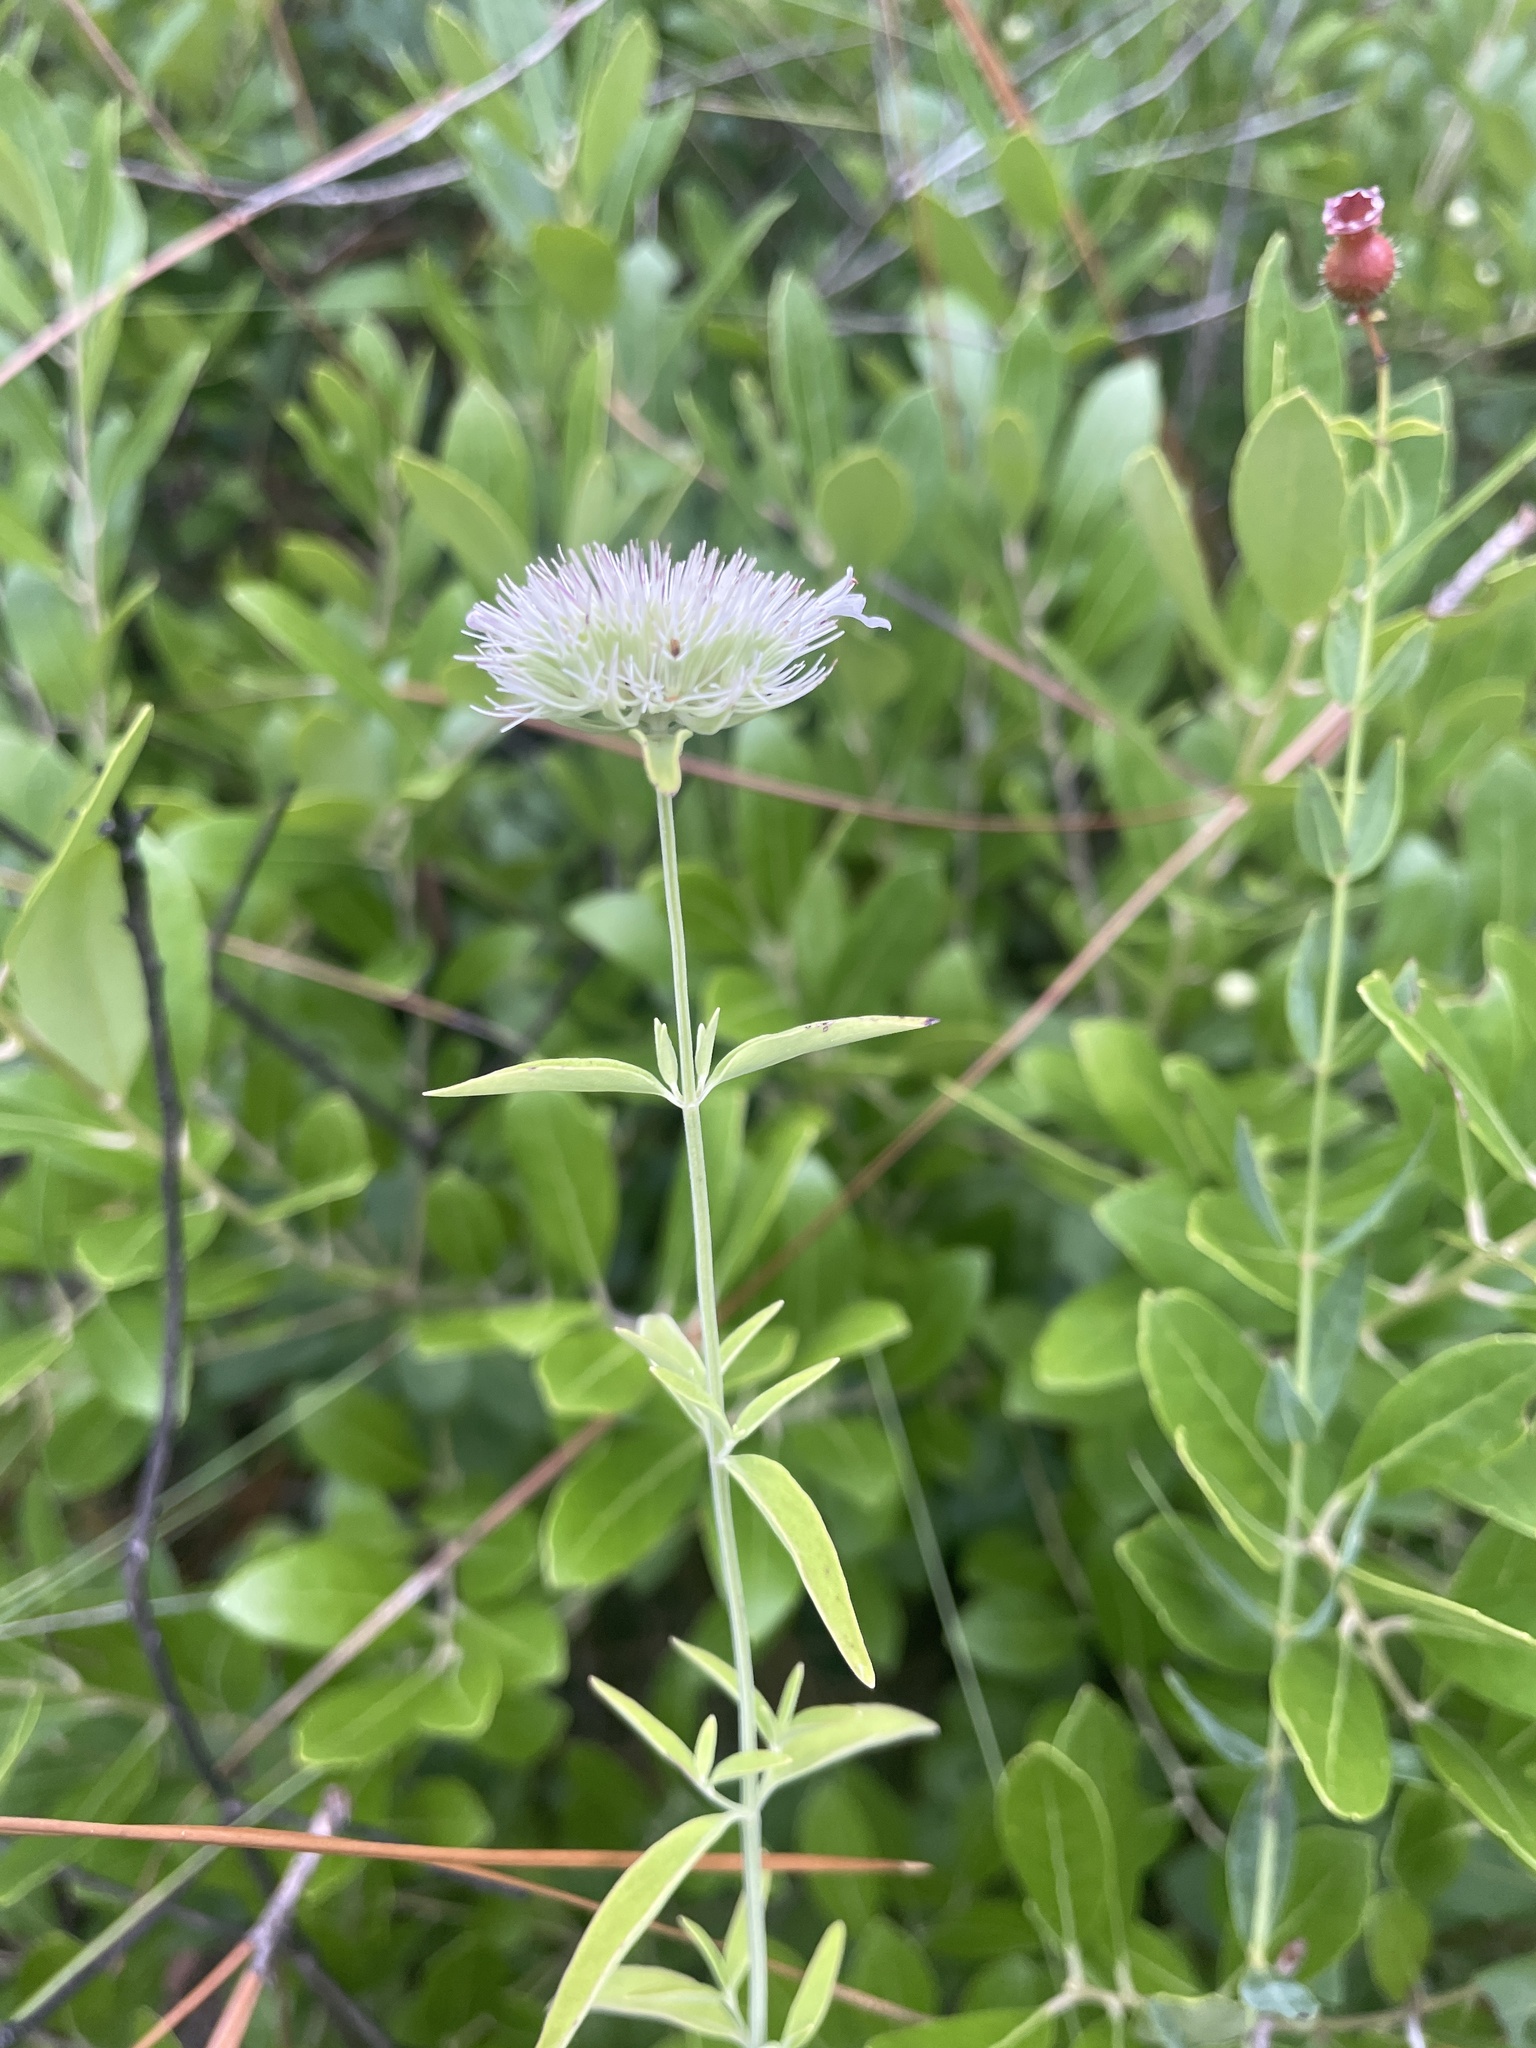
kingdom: Plantae
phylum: Tracheophyta
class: Magnoliopsida
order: Lamiales
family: Lamiaceae
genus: Pycnanthemum
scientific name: Pycnanthemum flexuosum
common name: Appalachian mountain-mint
